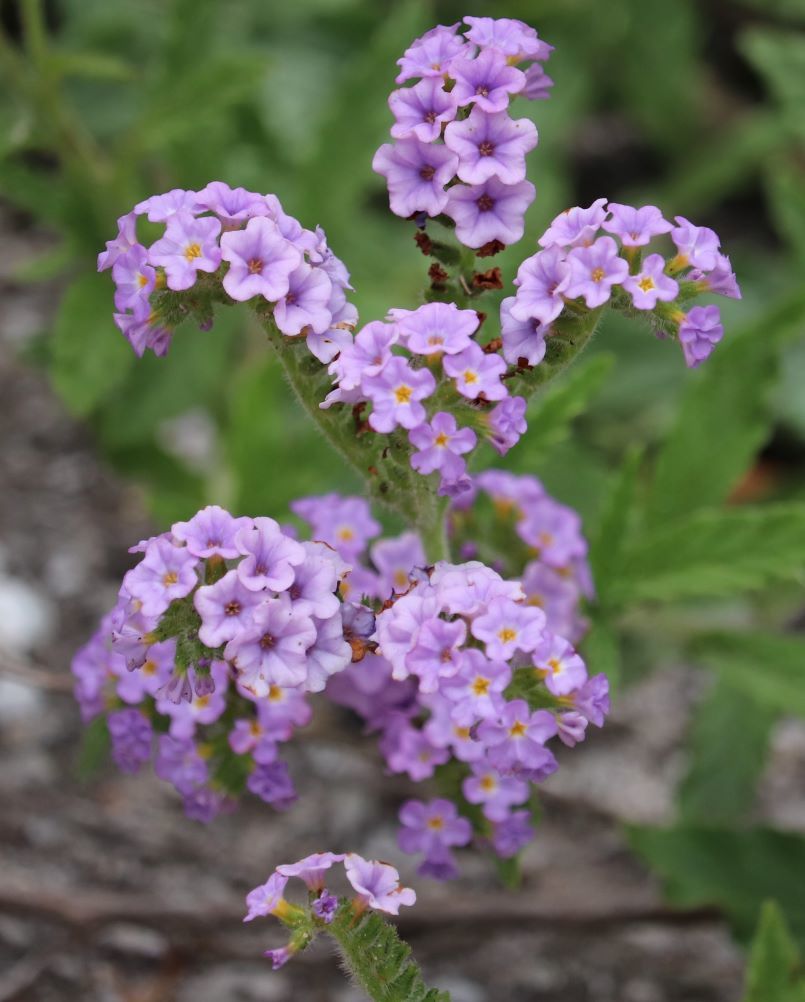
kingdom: Plantae
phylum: Tracheophyta
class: Magnoliopsida
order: Boraginales
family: Heliotropiaceae
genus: Heliotropium
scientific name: Heliotropium amplexicaule
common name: Clasping heliotrope
